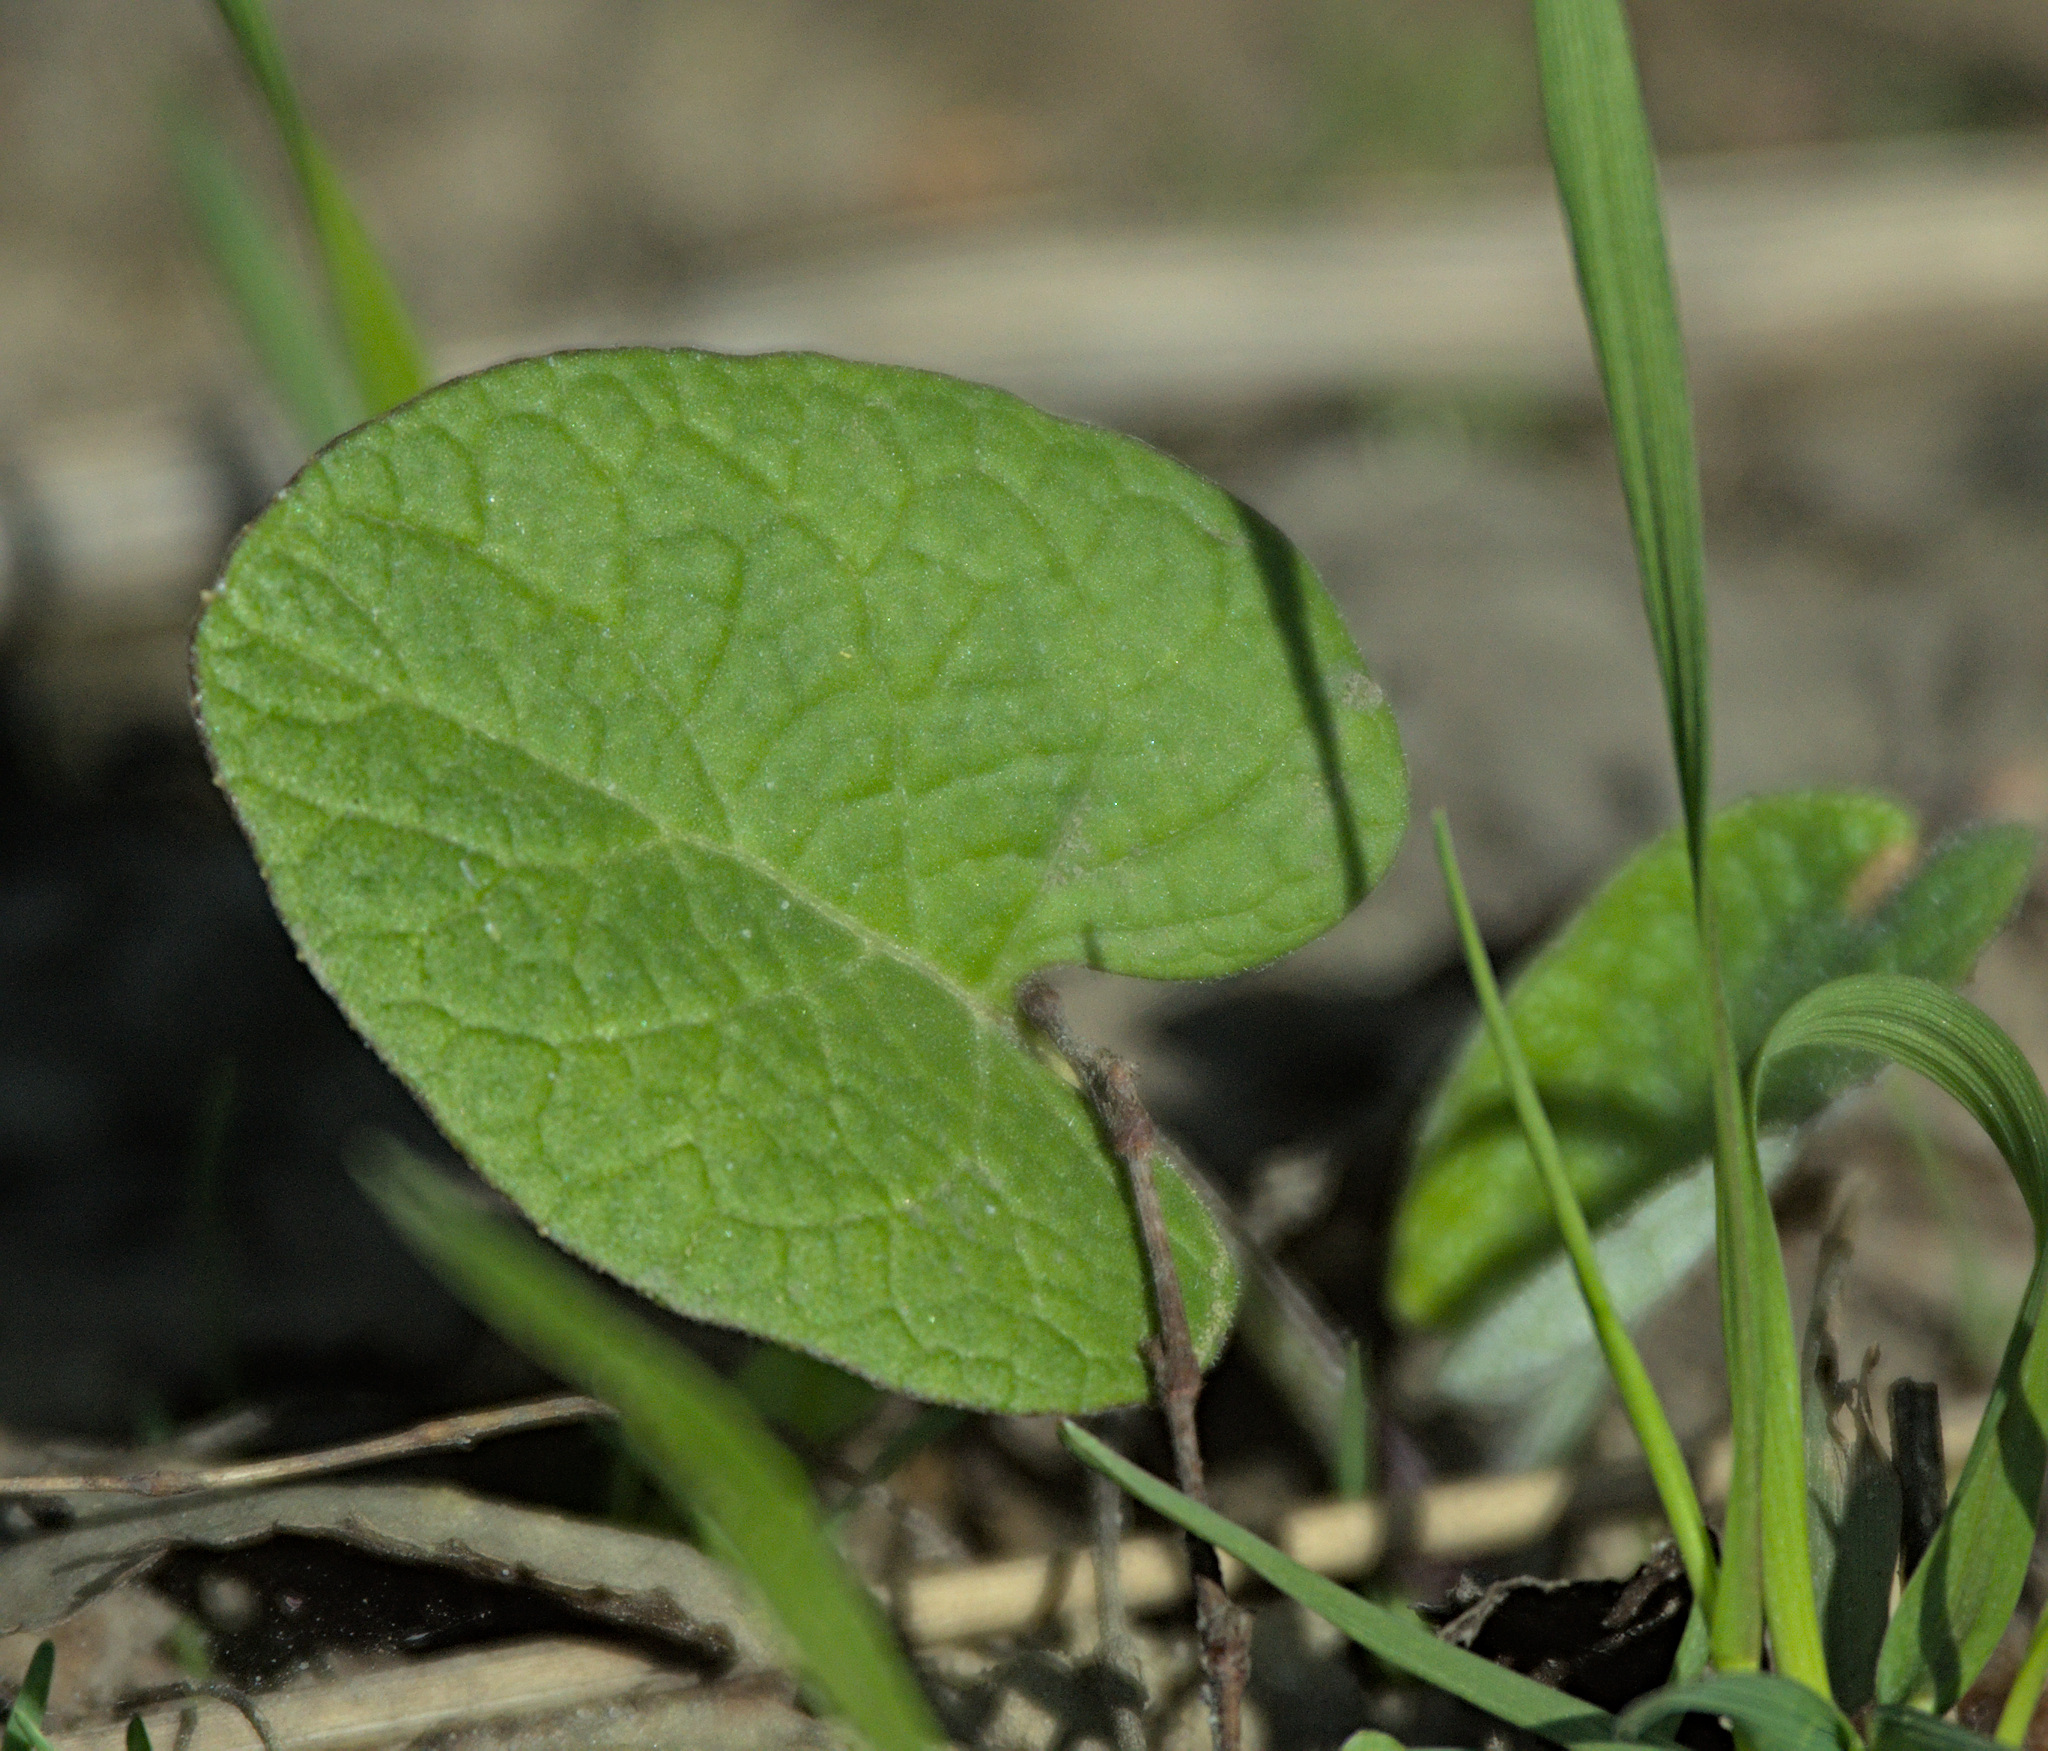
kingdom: Plantae
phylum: Tracheophyta
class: Magnoliopsida
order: Asterales
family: Asteraceae
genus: Arctium
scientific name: Arctium
